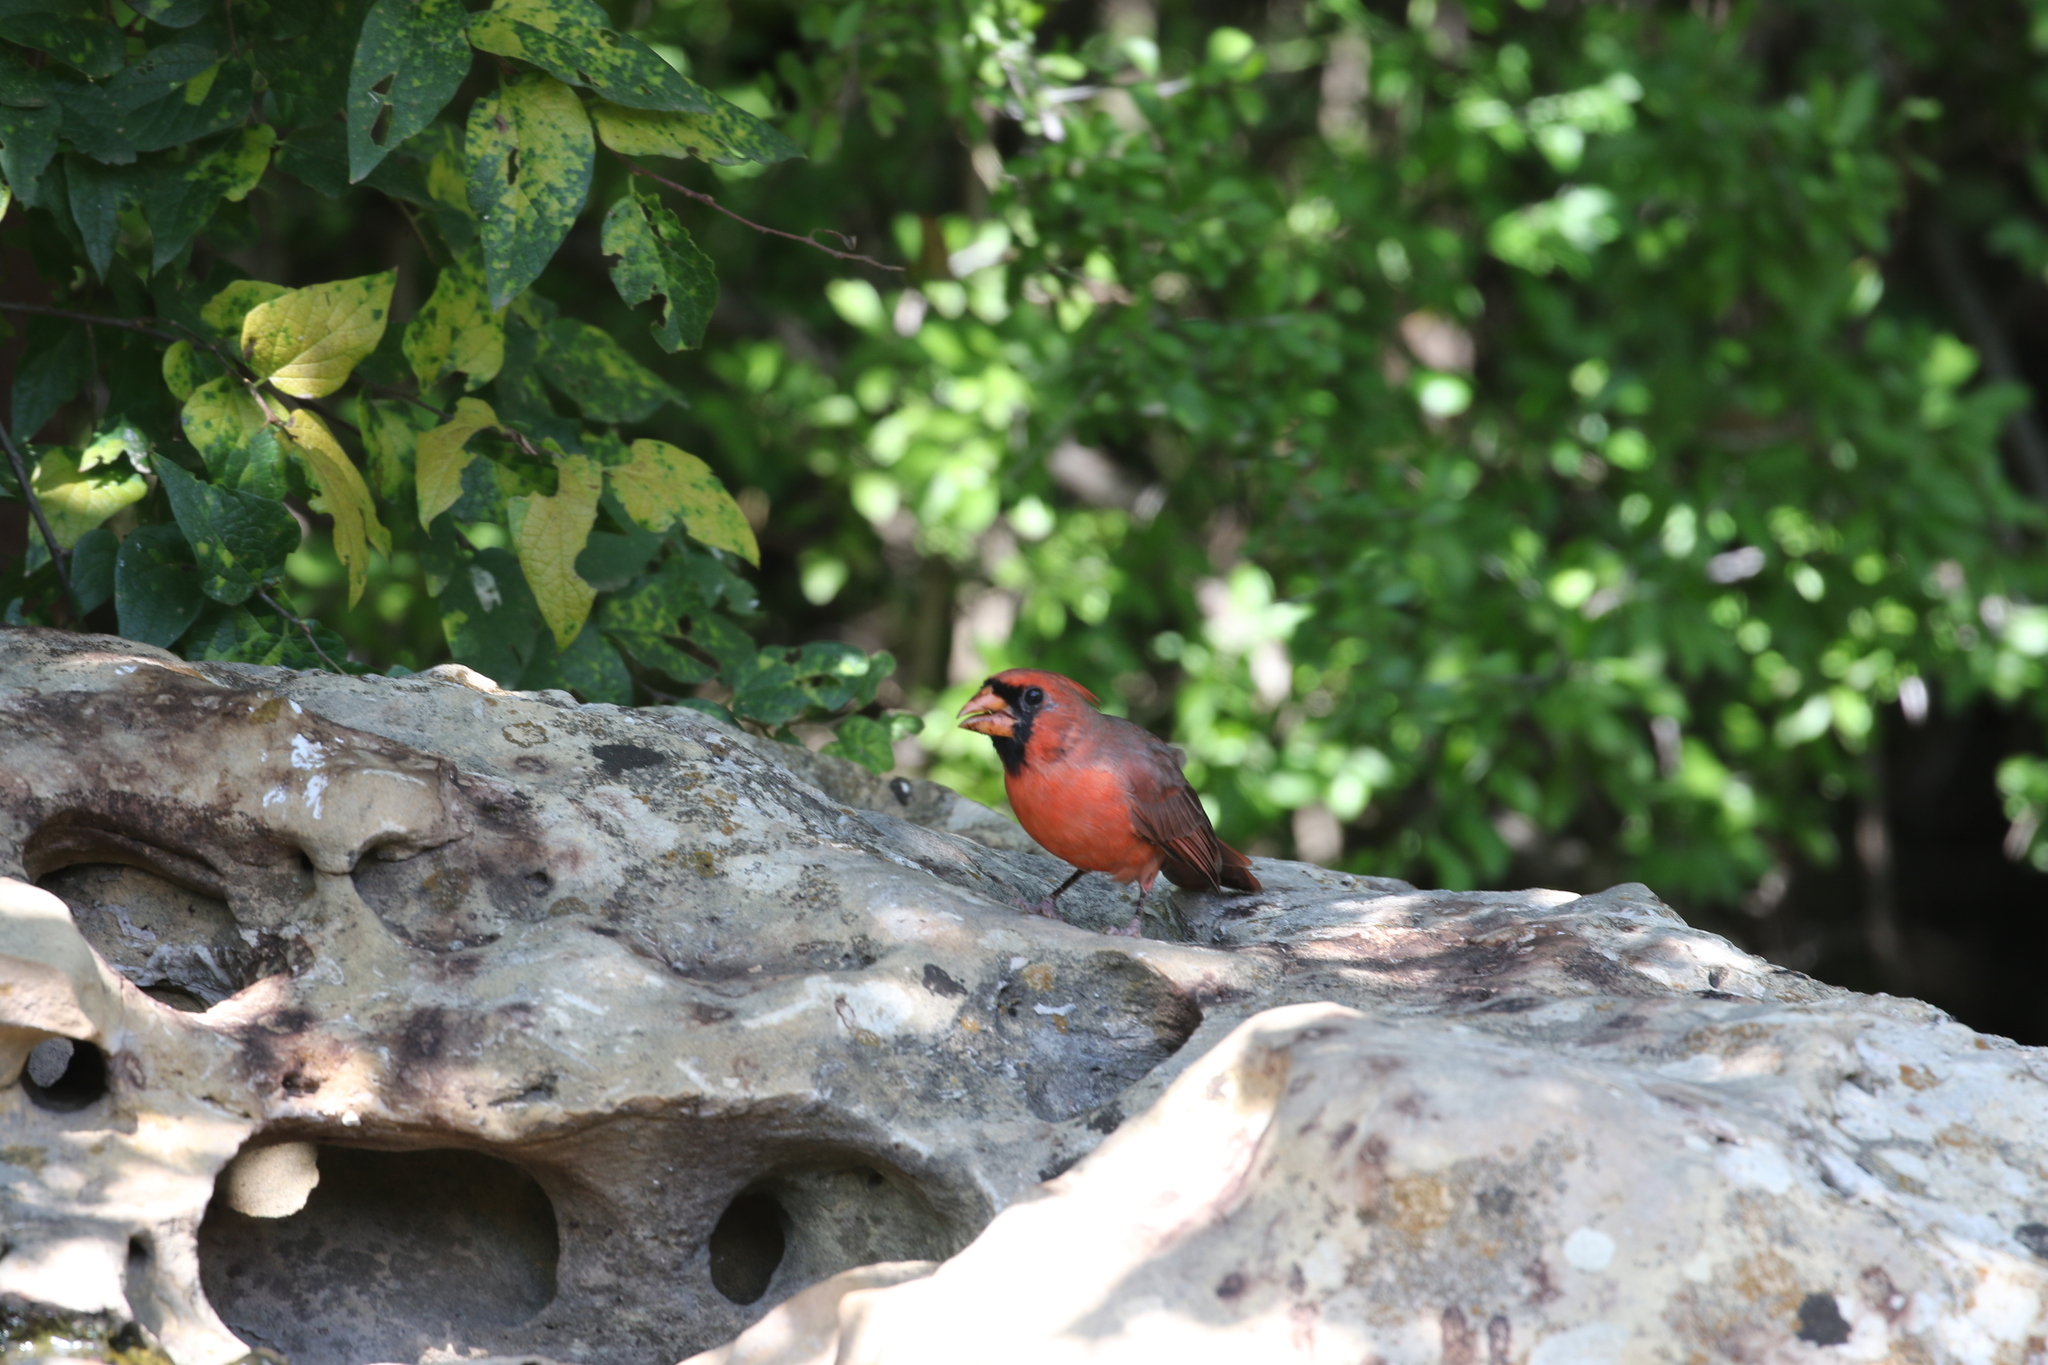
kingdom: Animalia
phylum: Chordata
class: Aves
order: Passeriformes
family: Cardinalidae
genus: Cardinalis
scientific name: Cardinalis cardinalis
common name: Northern cardinal
